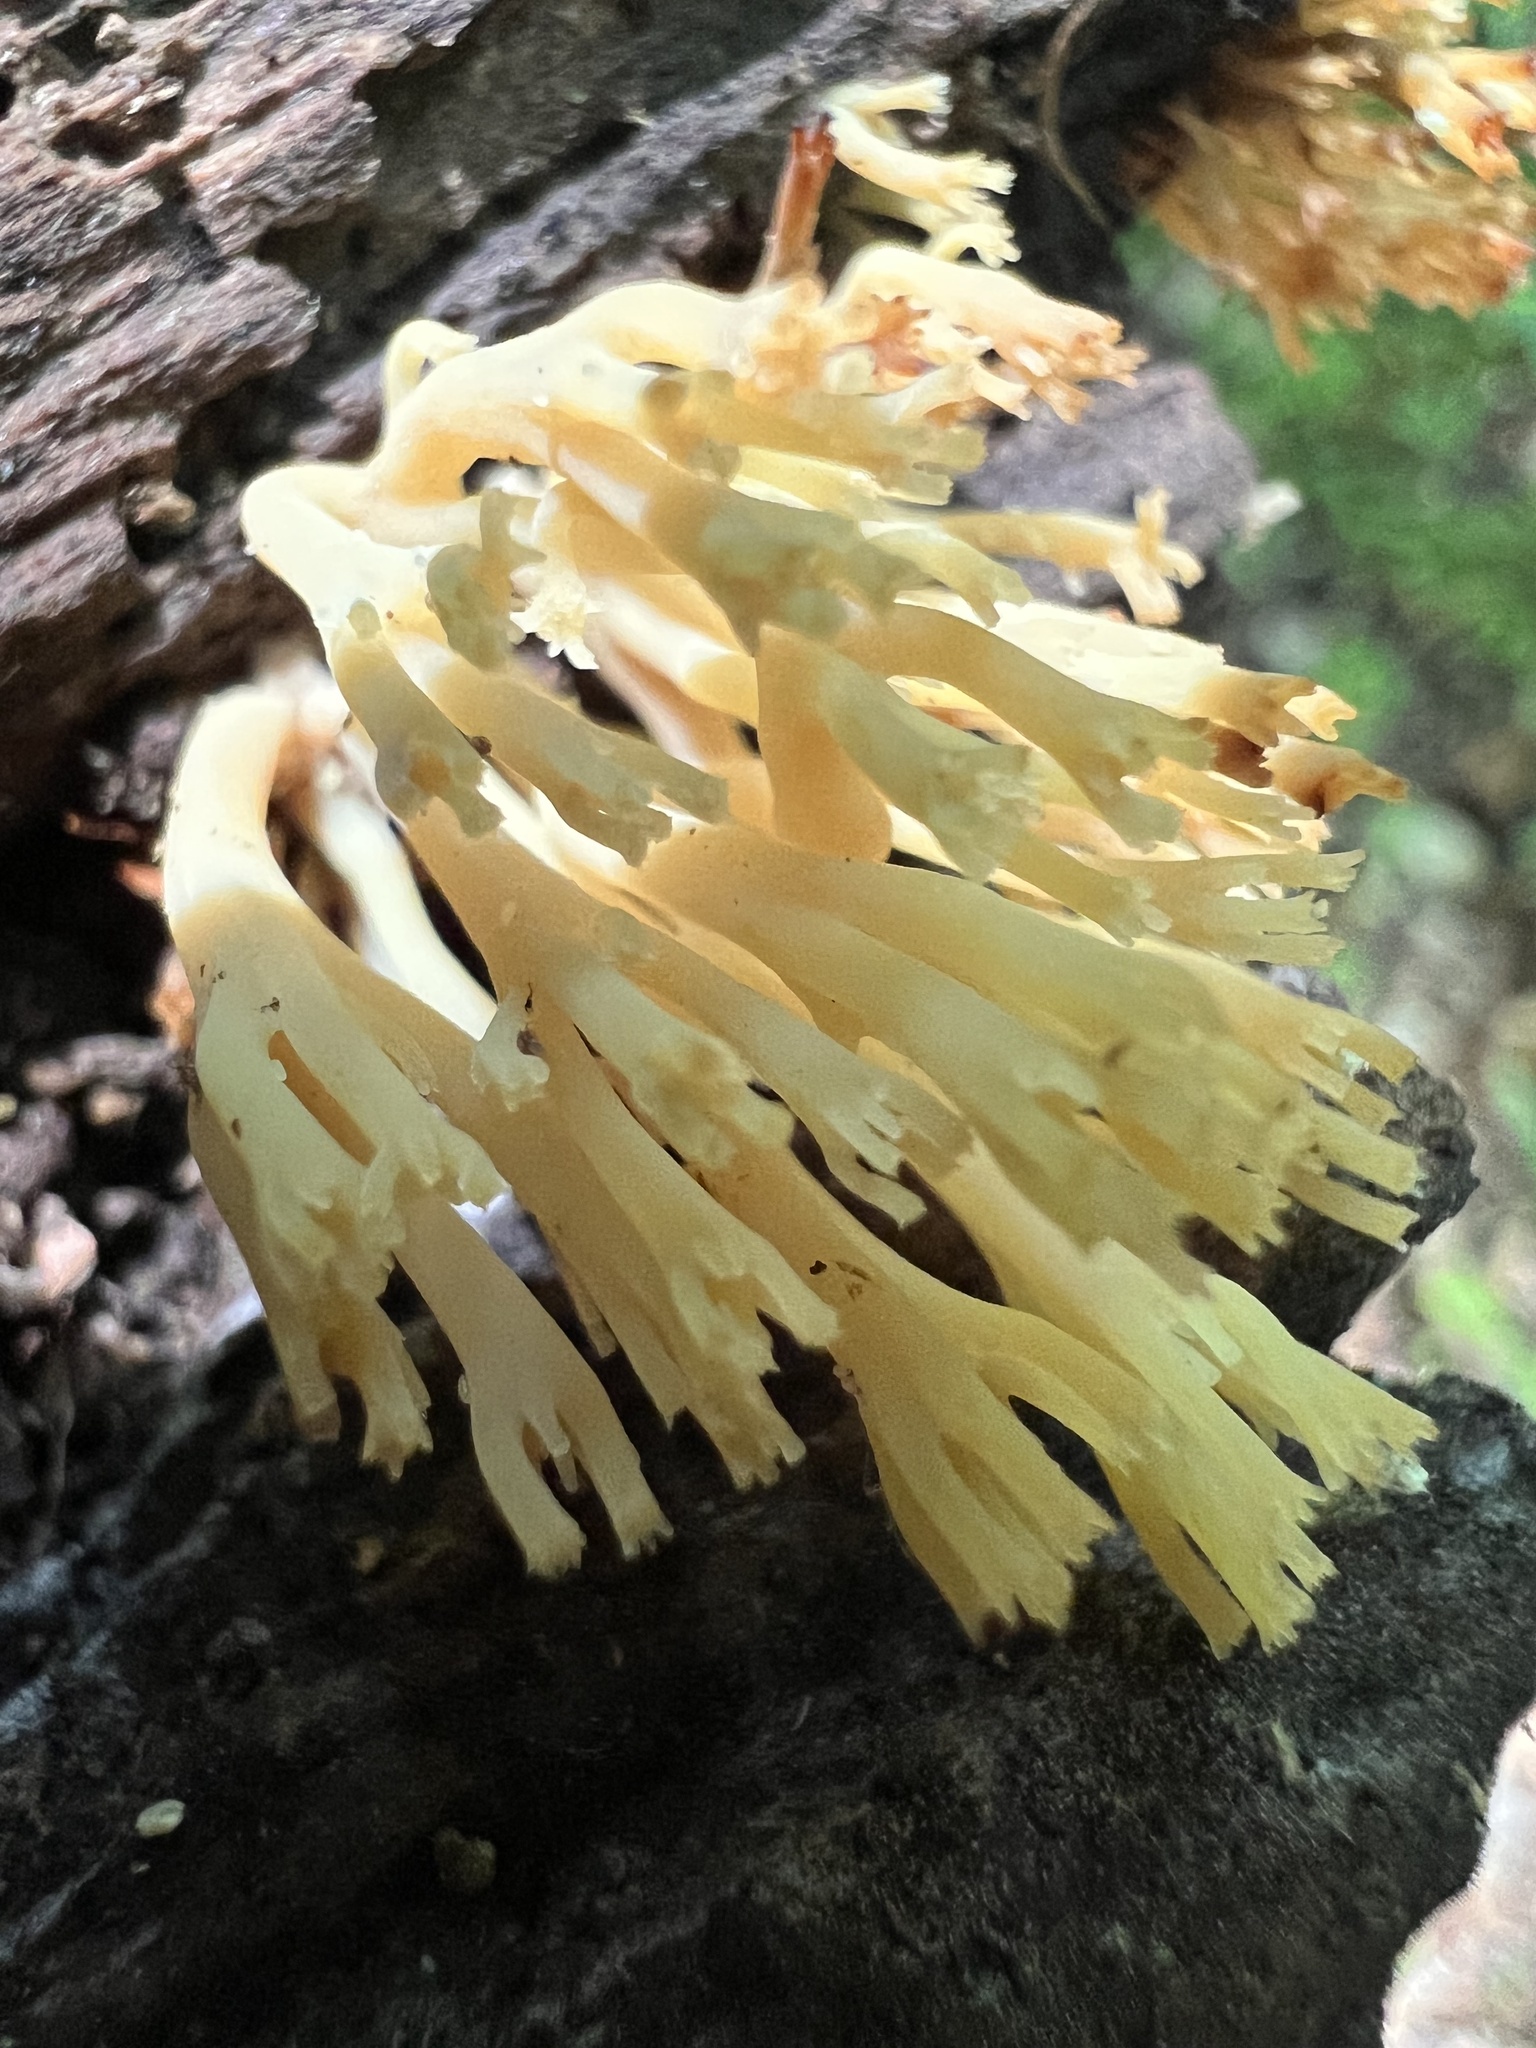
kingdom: Fungi
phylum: Basidiomycota
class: Agaricomycetes
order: Russulales
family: Auriscalpiaceae
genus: Artomyces
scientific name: Artomyces pyxidatus
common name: Crown-tipped coral fungus
